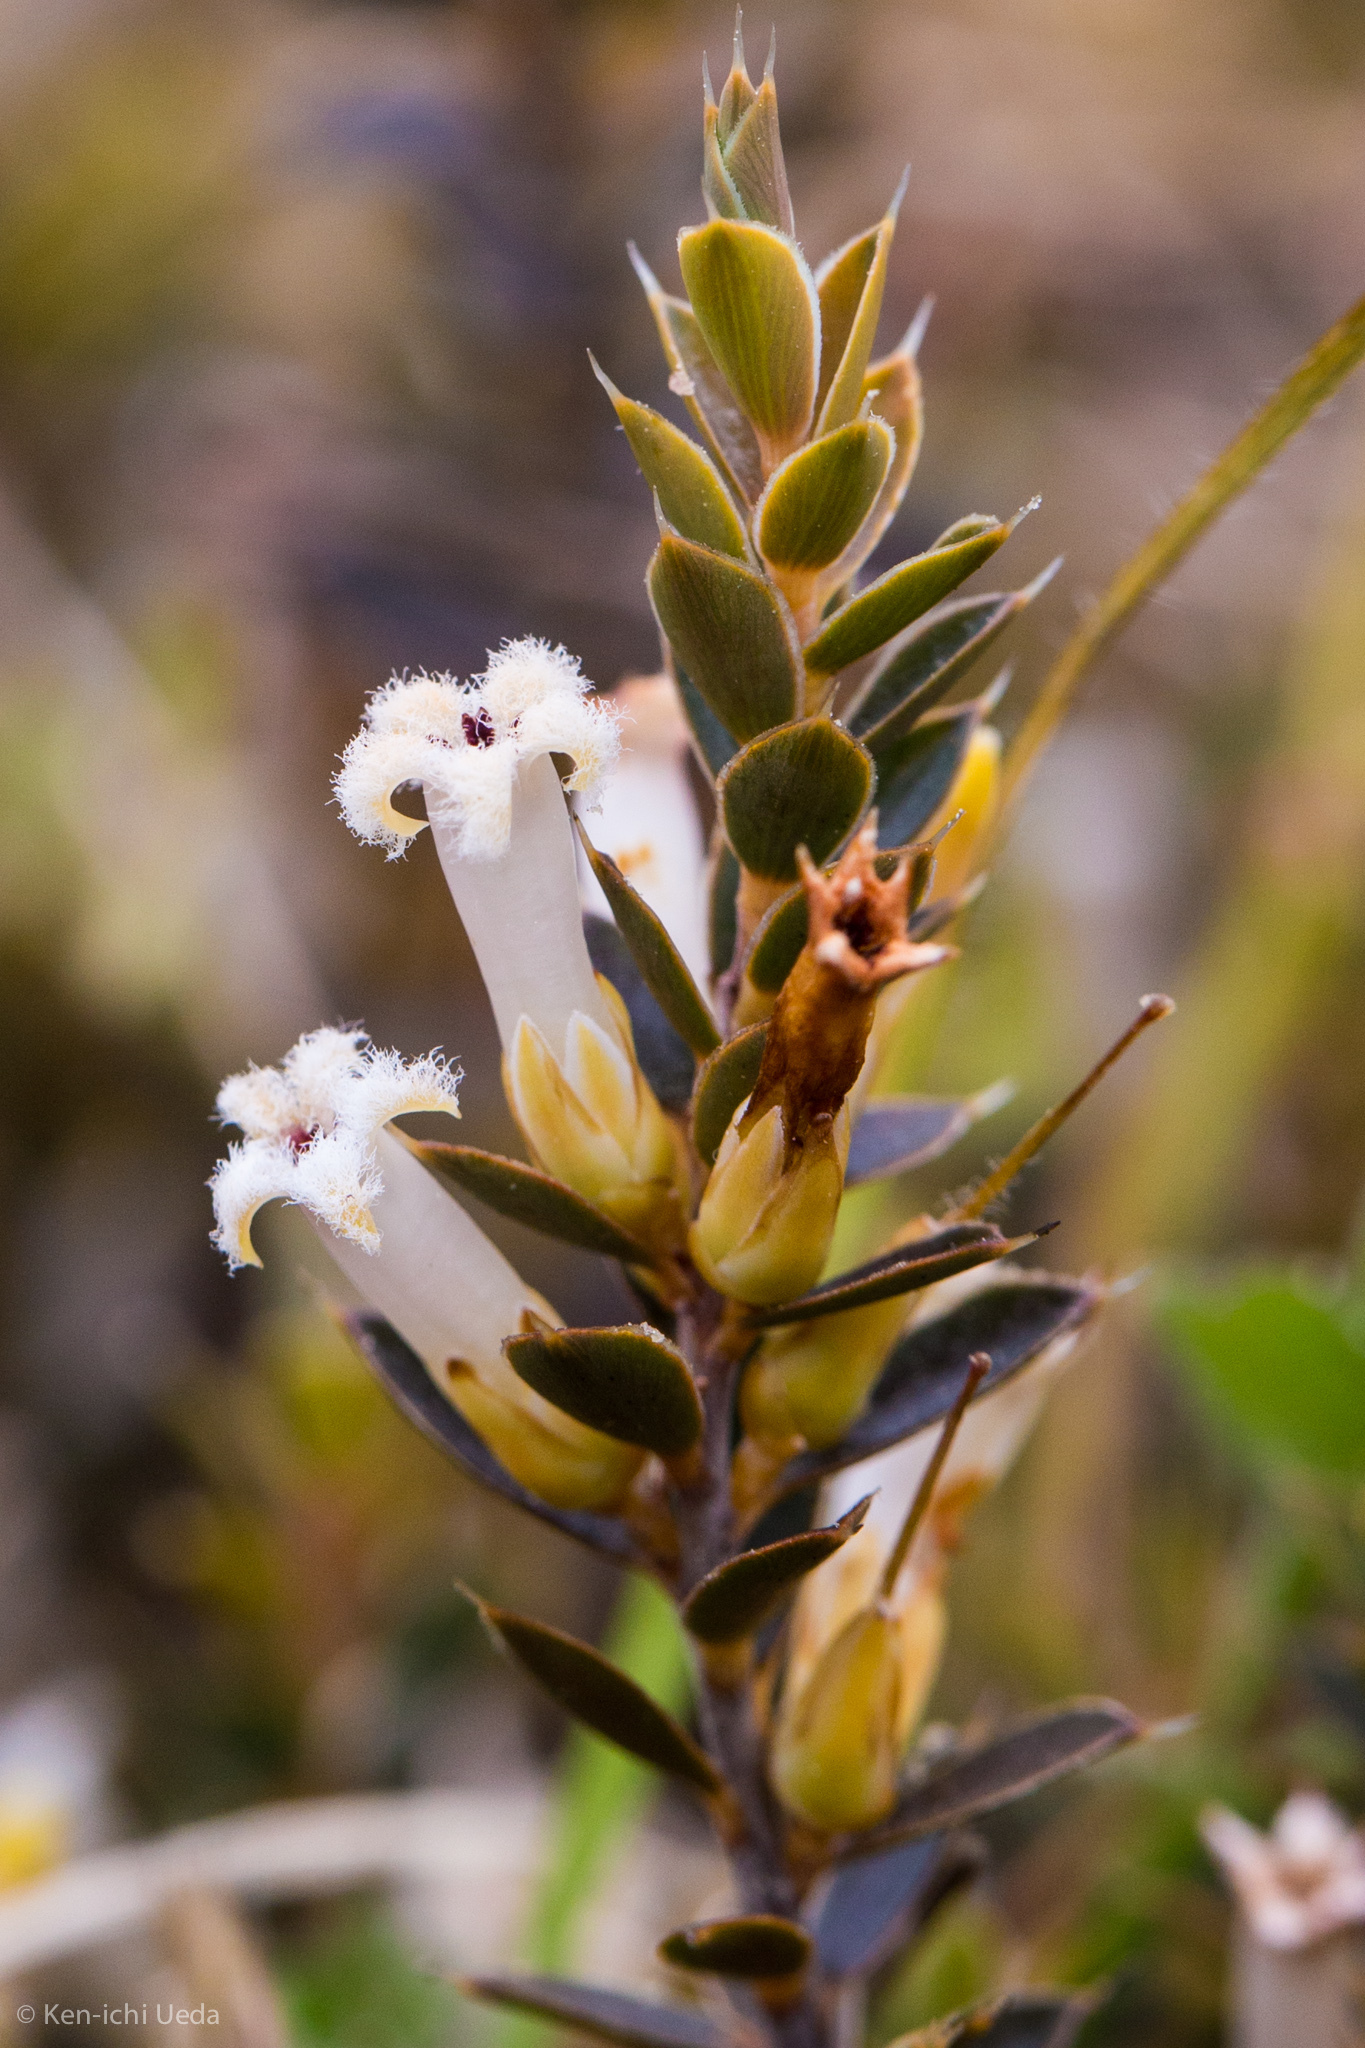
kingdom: Plantae
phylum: Tracheophyta
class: Magnoliopsida
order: Ericales
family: Ericaceae
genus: Styphelia
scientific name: Styphelia nesophila
